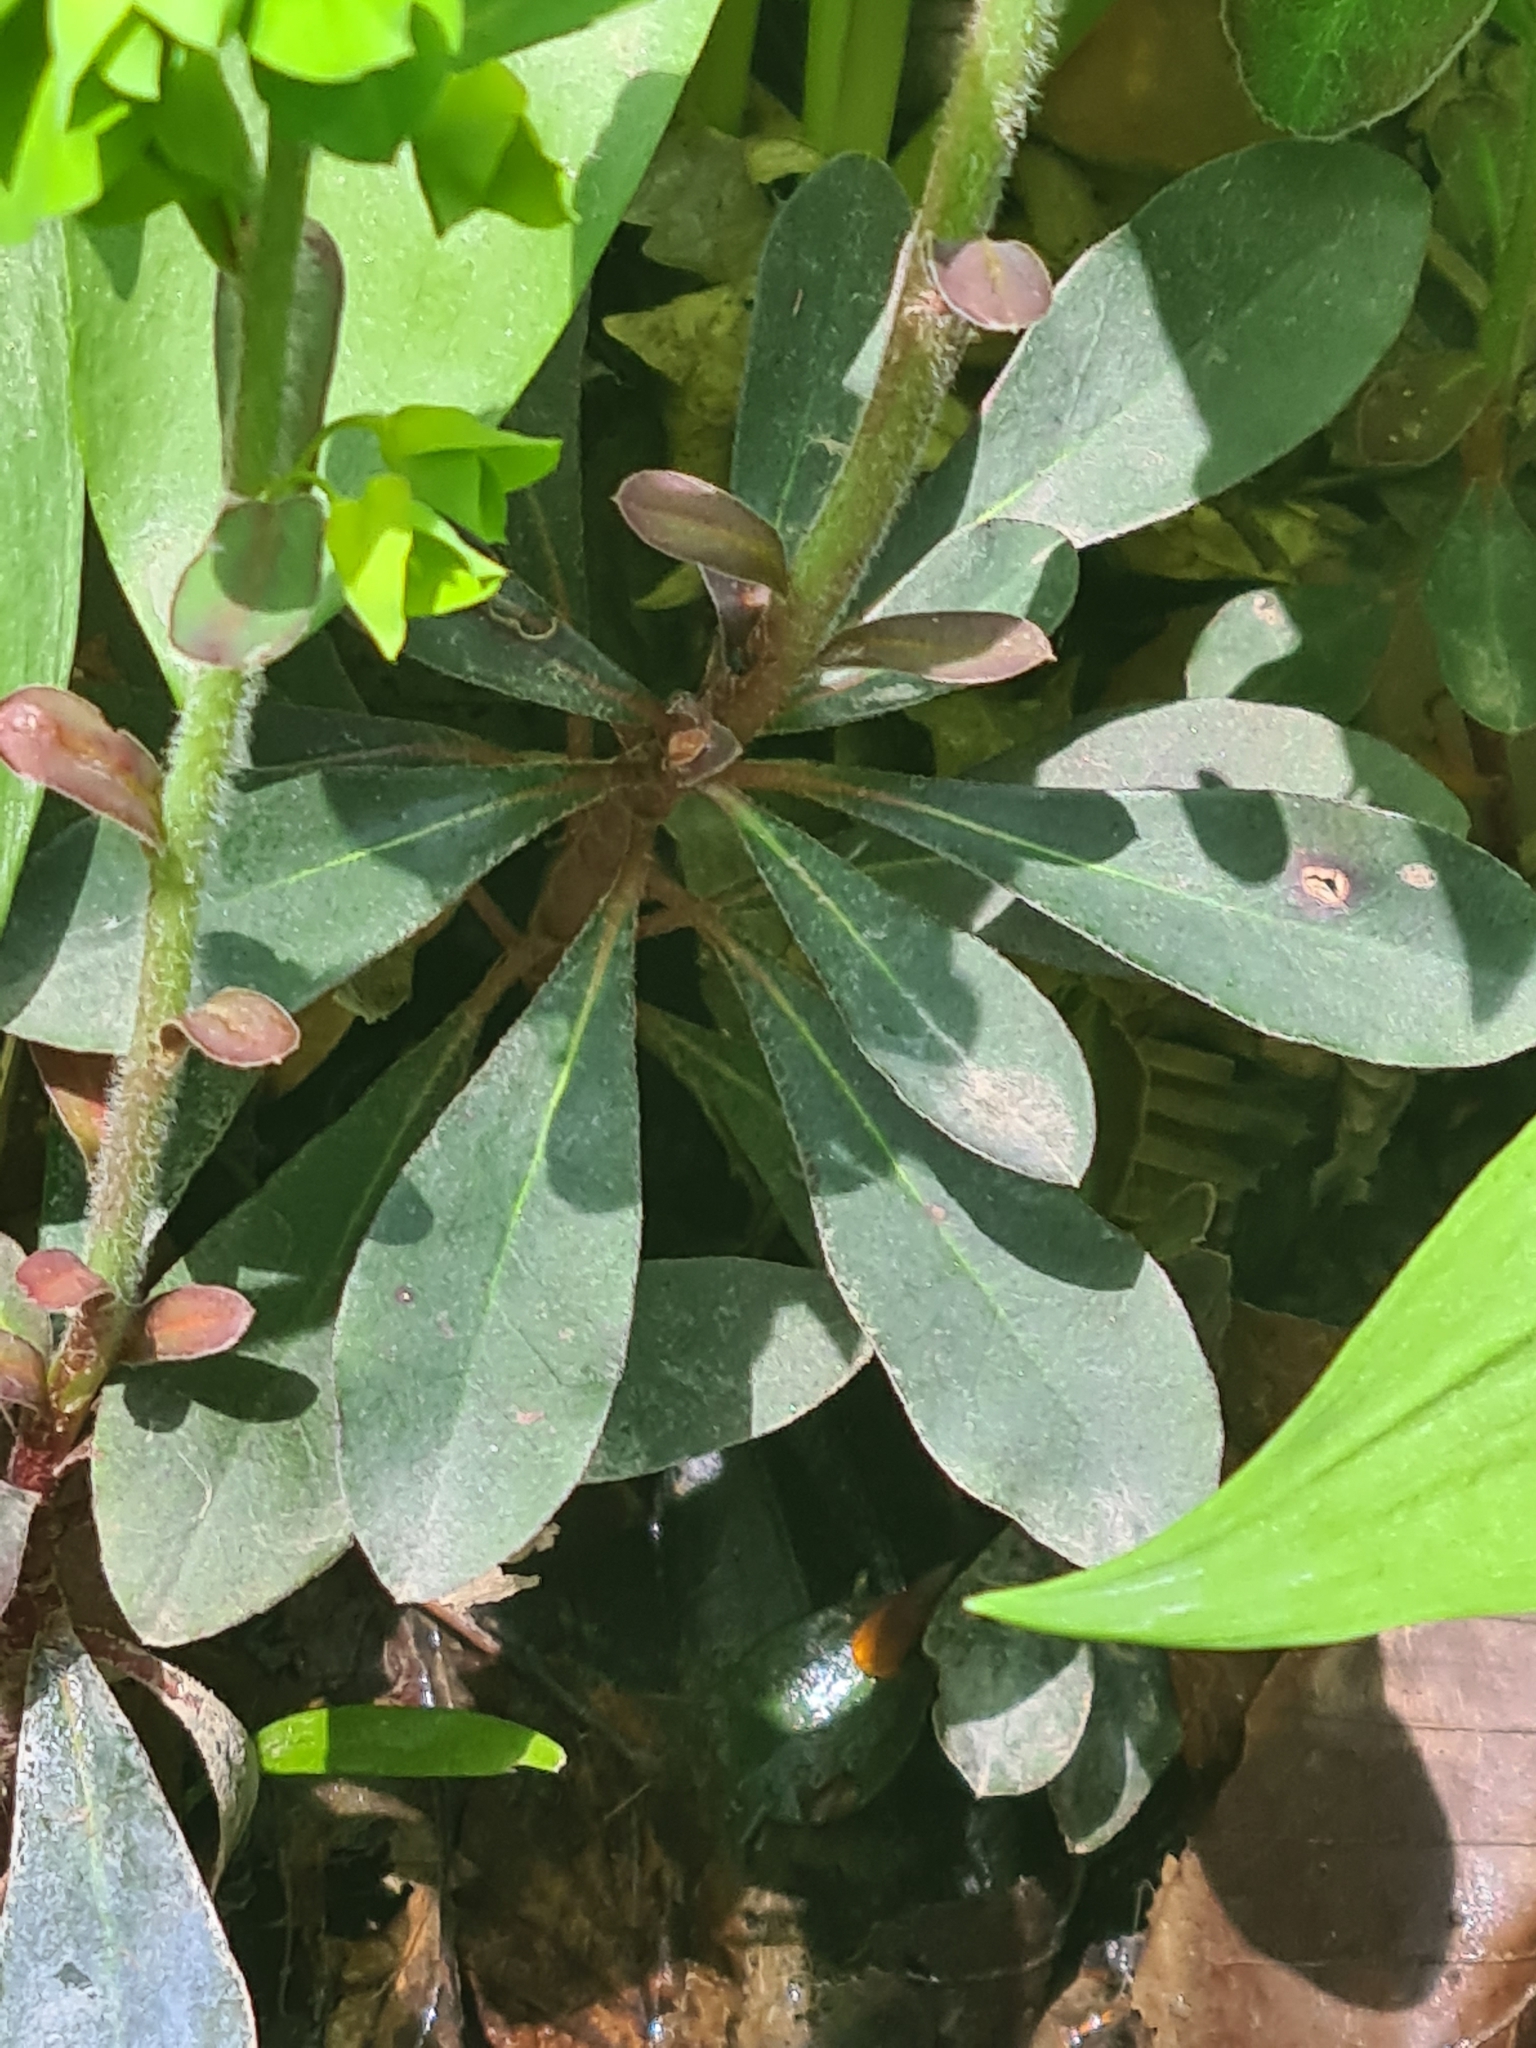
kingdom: Plantae
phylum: Tracheophyta
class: Magnoliopsida
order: Malpighiales
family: Euphorbiaceae
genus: Euphorbia
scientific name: Euphorbia amygdaloides
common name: Wood spurge
